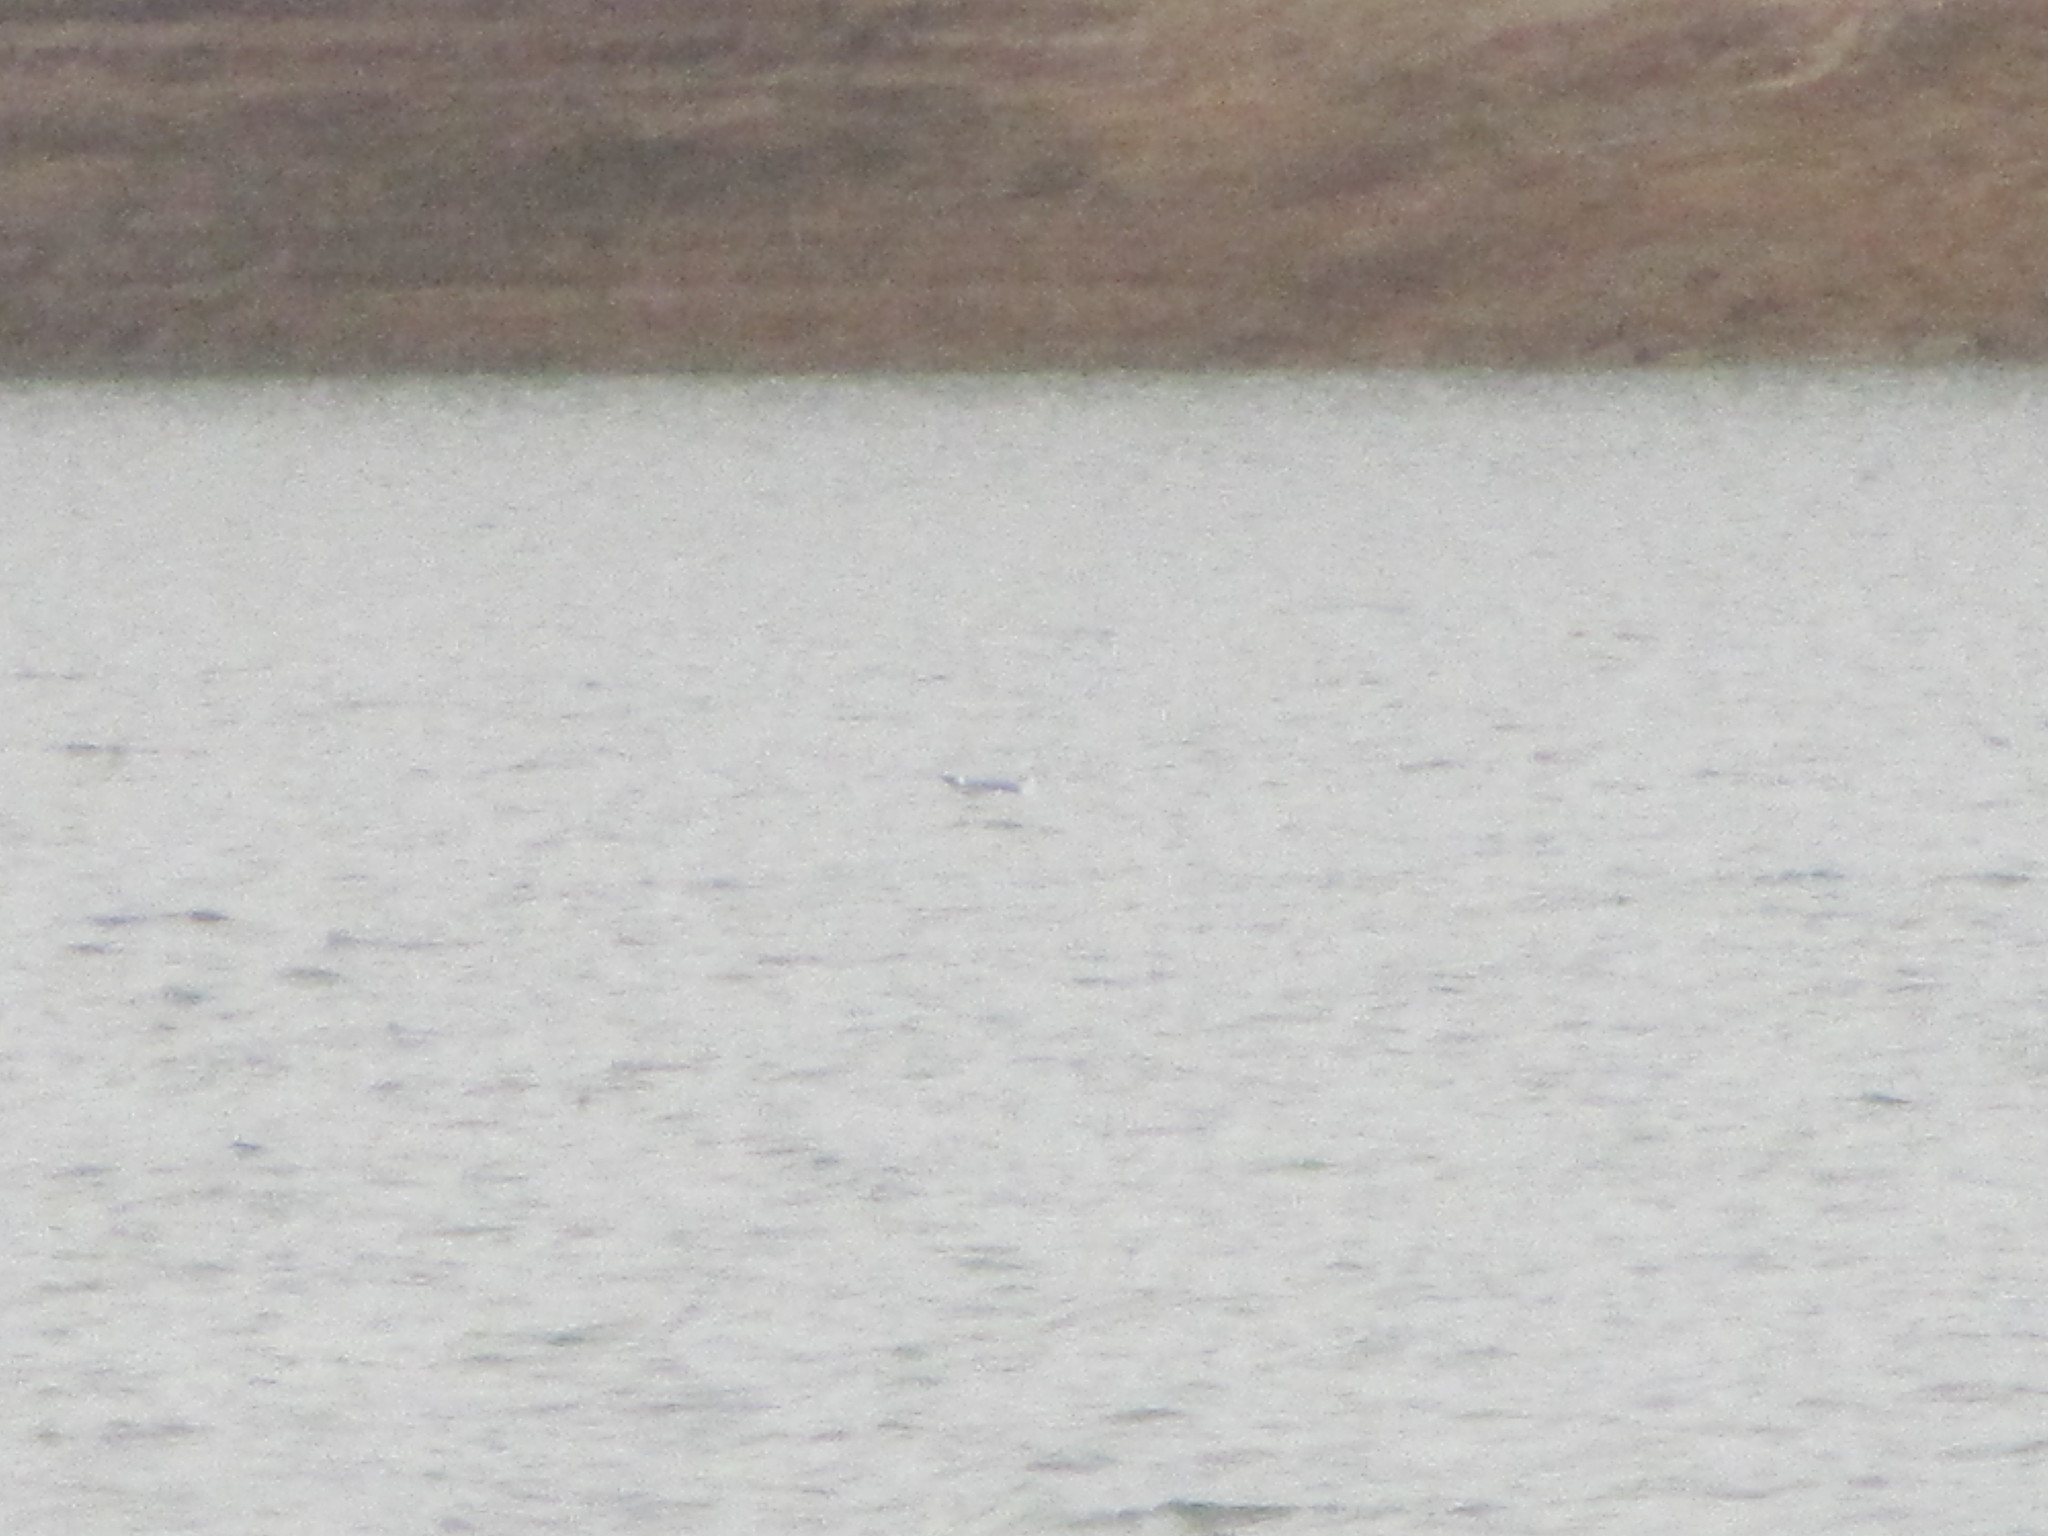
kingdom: Animalia
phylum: Chordata
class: Aves
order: Charadriiformes
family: Laridae
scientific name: Laridae
